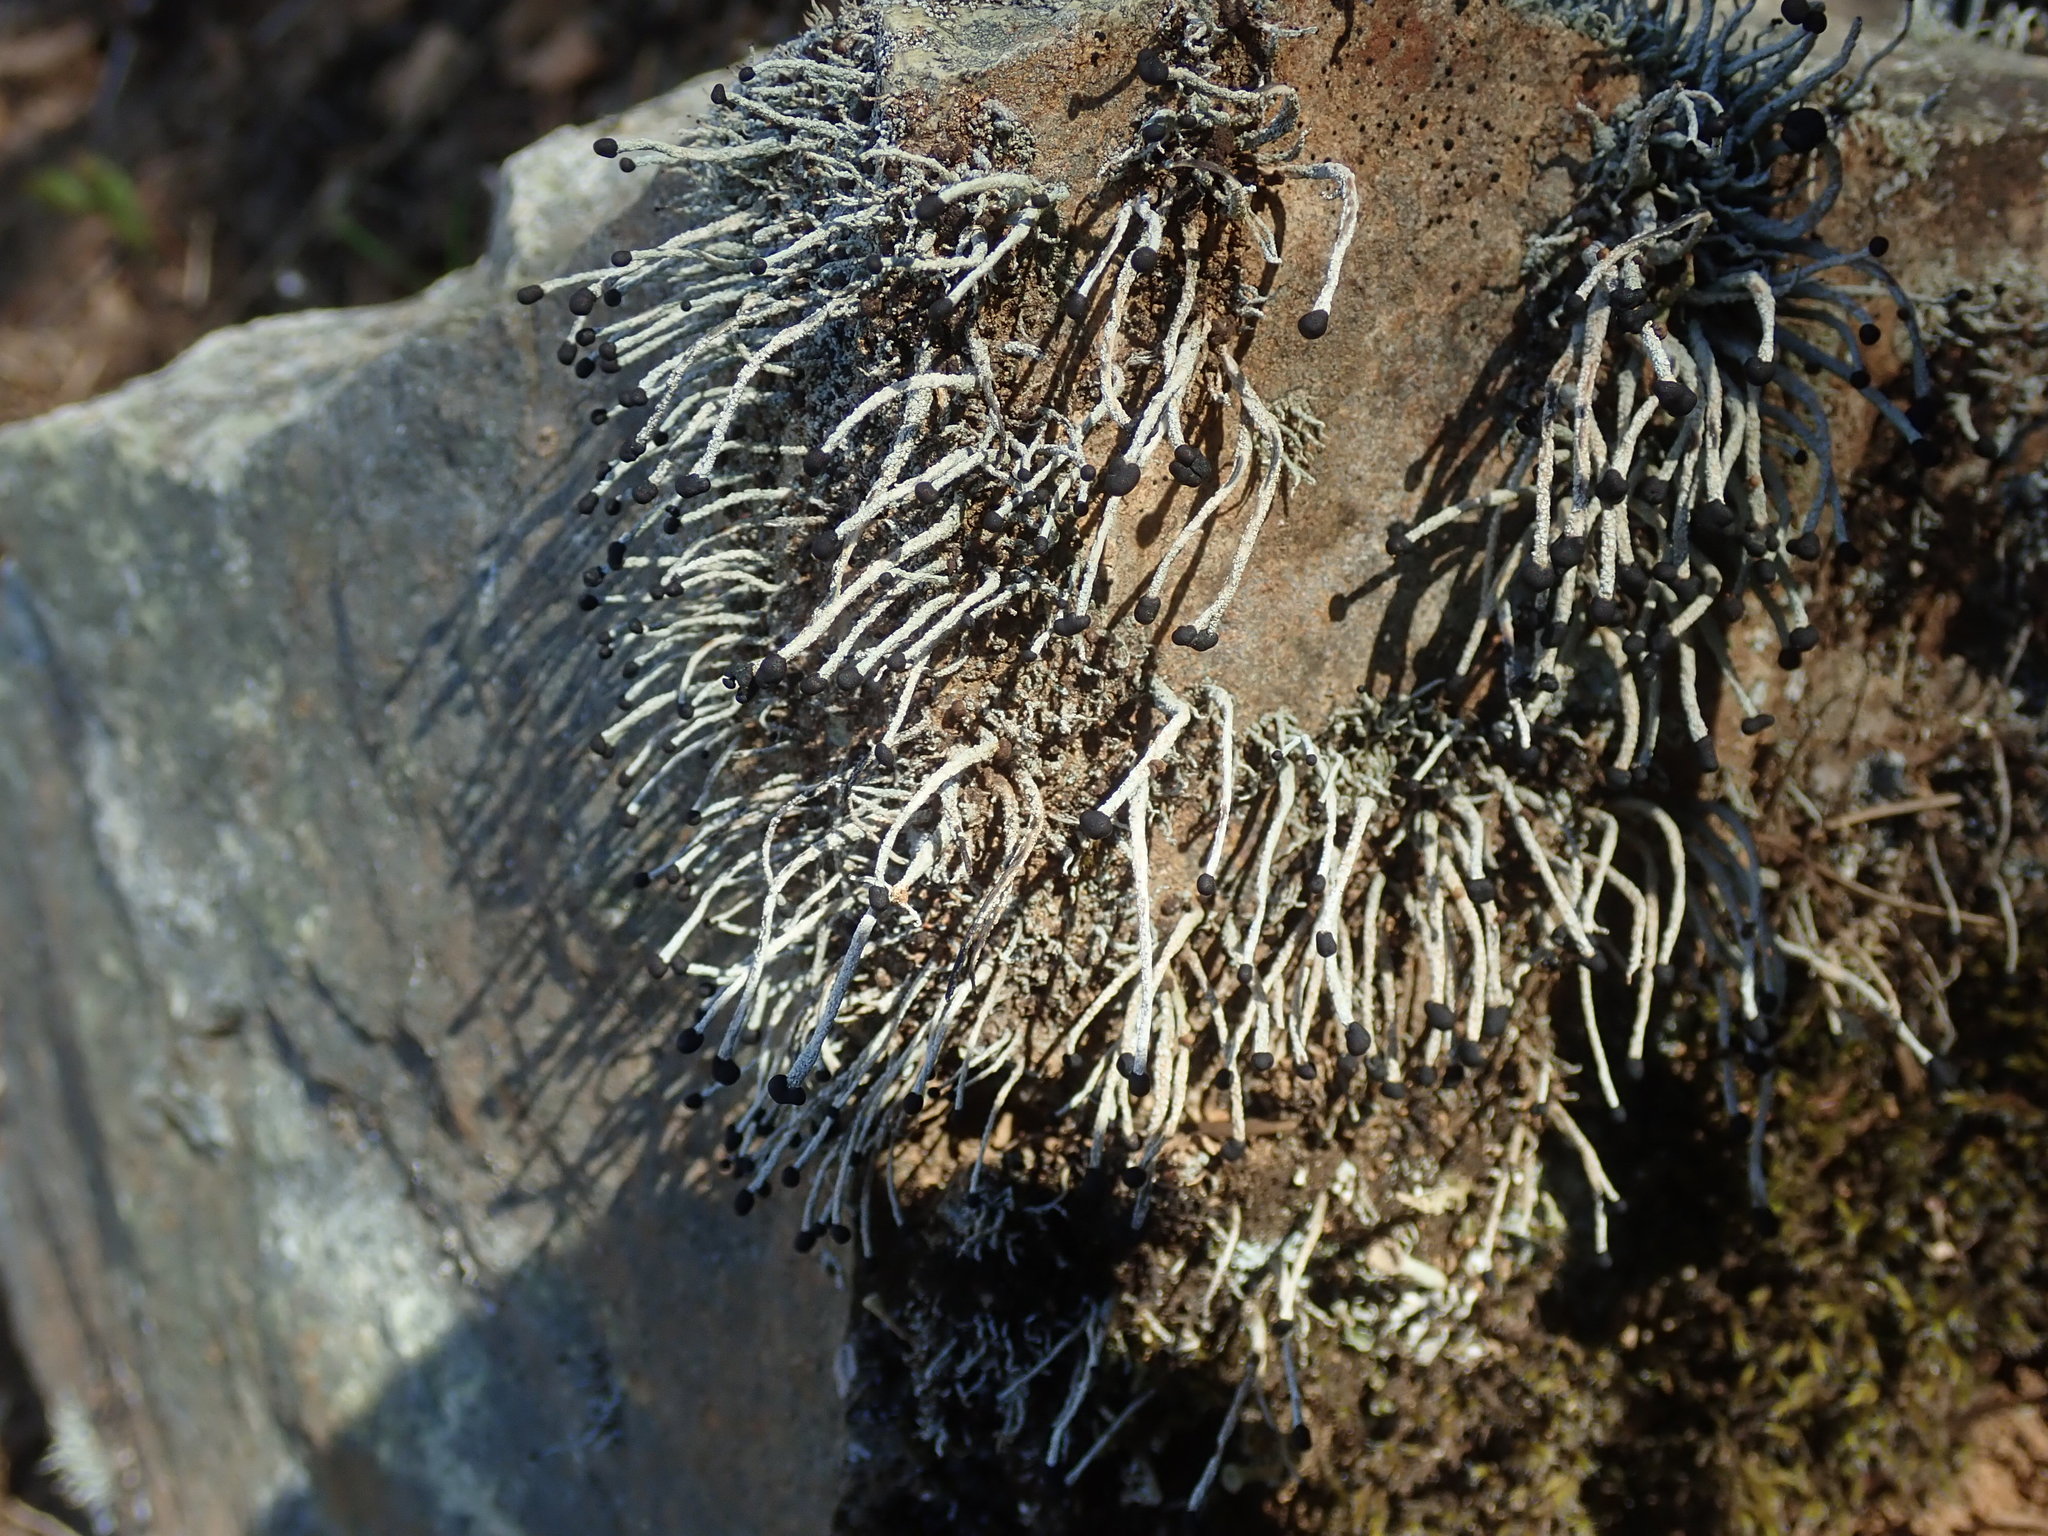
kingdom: Fungi
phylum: Ascomycota
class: Lecanoromycetes
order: Lecanorales
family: Cladoniaceae
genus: Pilophorus
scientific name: Pilophorus acicularis
